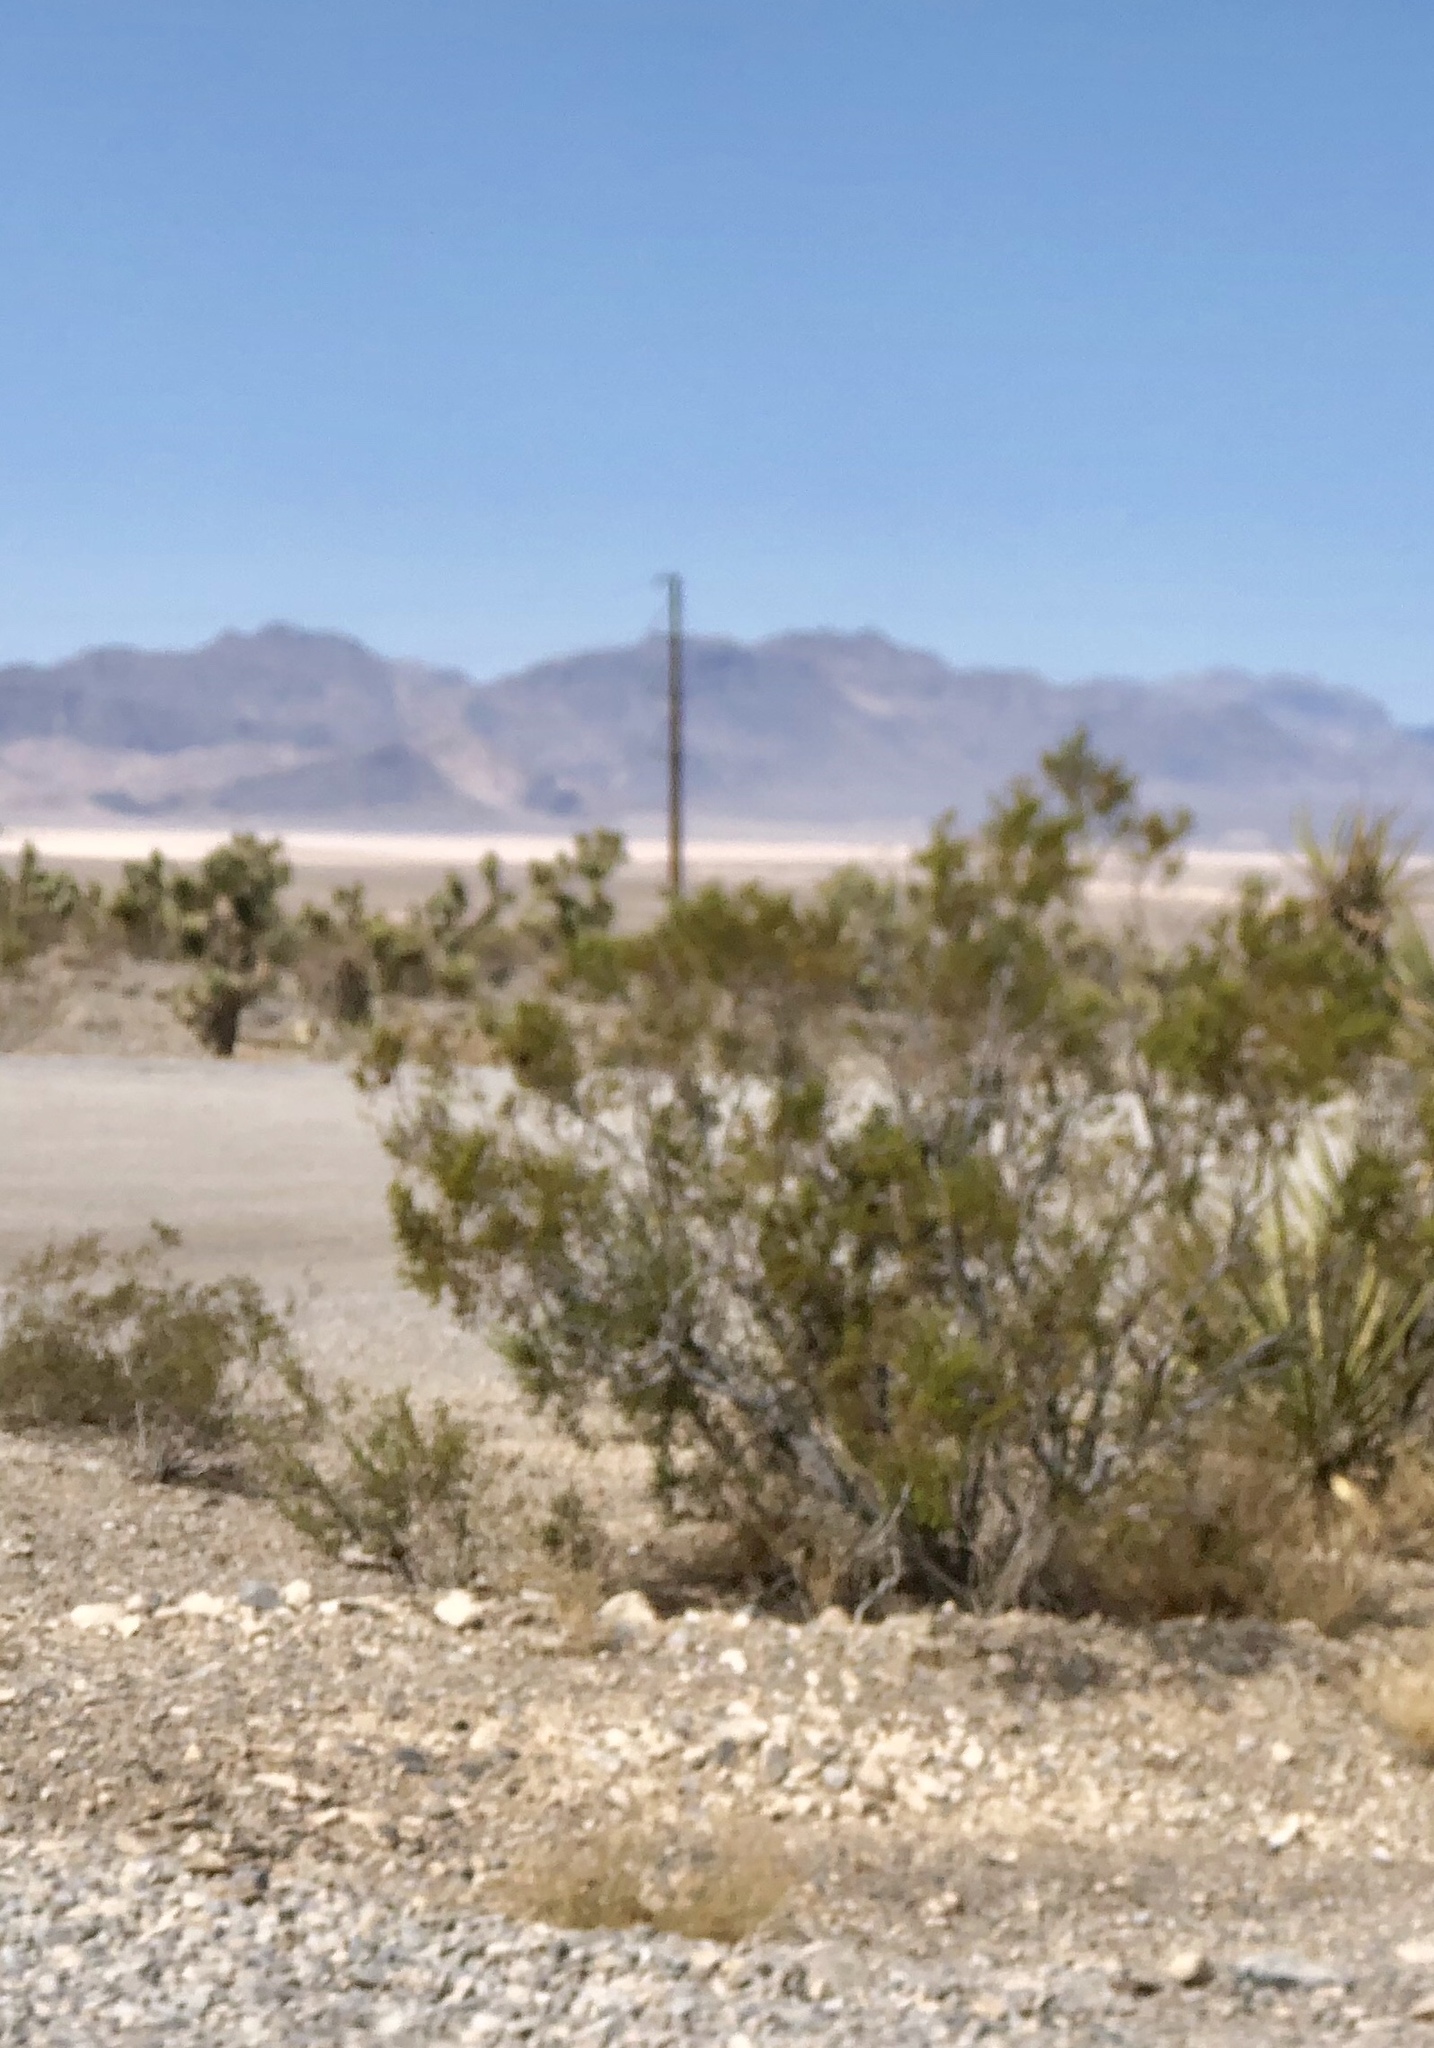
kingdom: Plantae
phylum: Tracheophyta
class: Magnoliopsida
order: Zygophyllales
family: Zygophyllaceae
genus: Larrea
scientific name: Larrea tridentata
